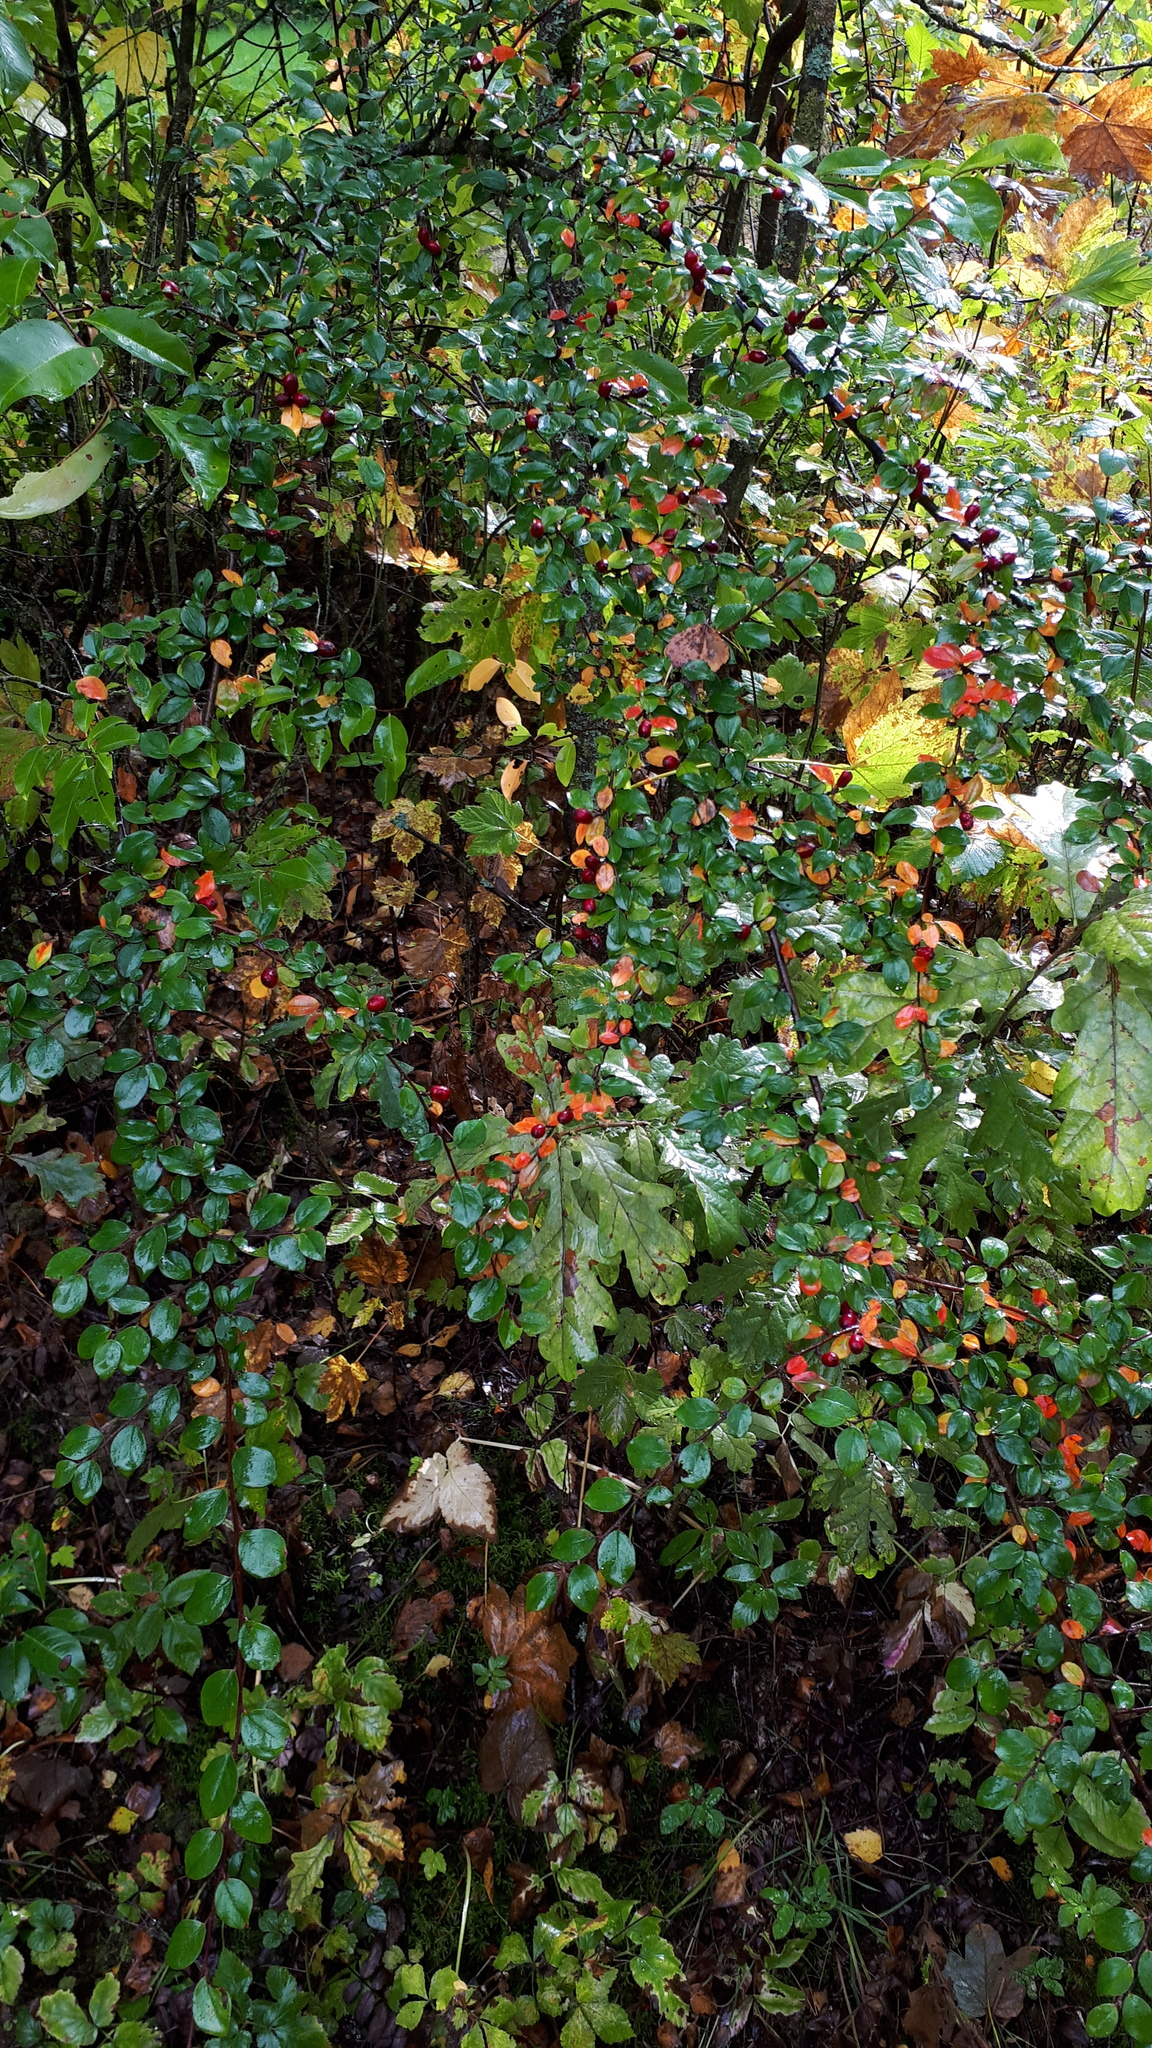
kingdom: Plantae
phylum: Tracheophyta
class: Magnoliopsida
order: Rosales
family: Rosaceae
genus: Cotoneaster
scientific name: Cotoneaster divaricatus
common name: Spreading cotoneaster
